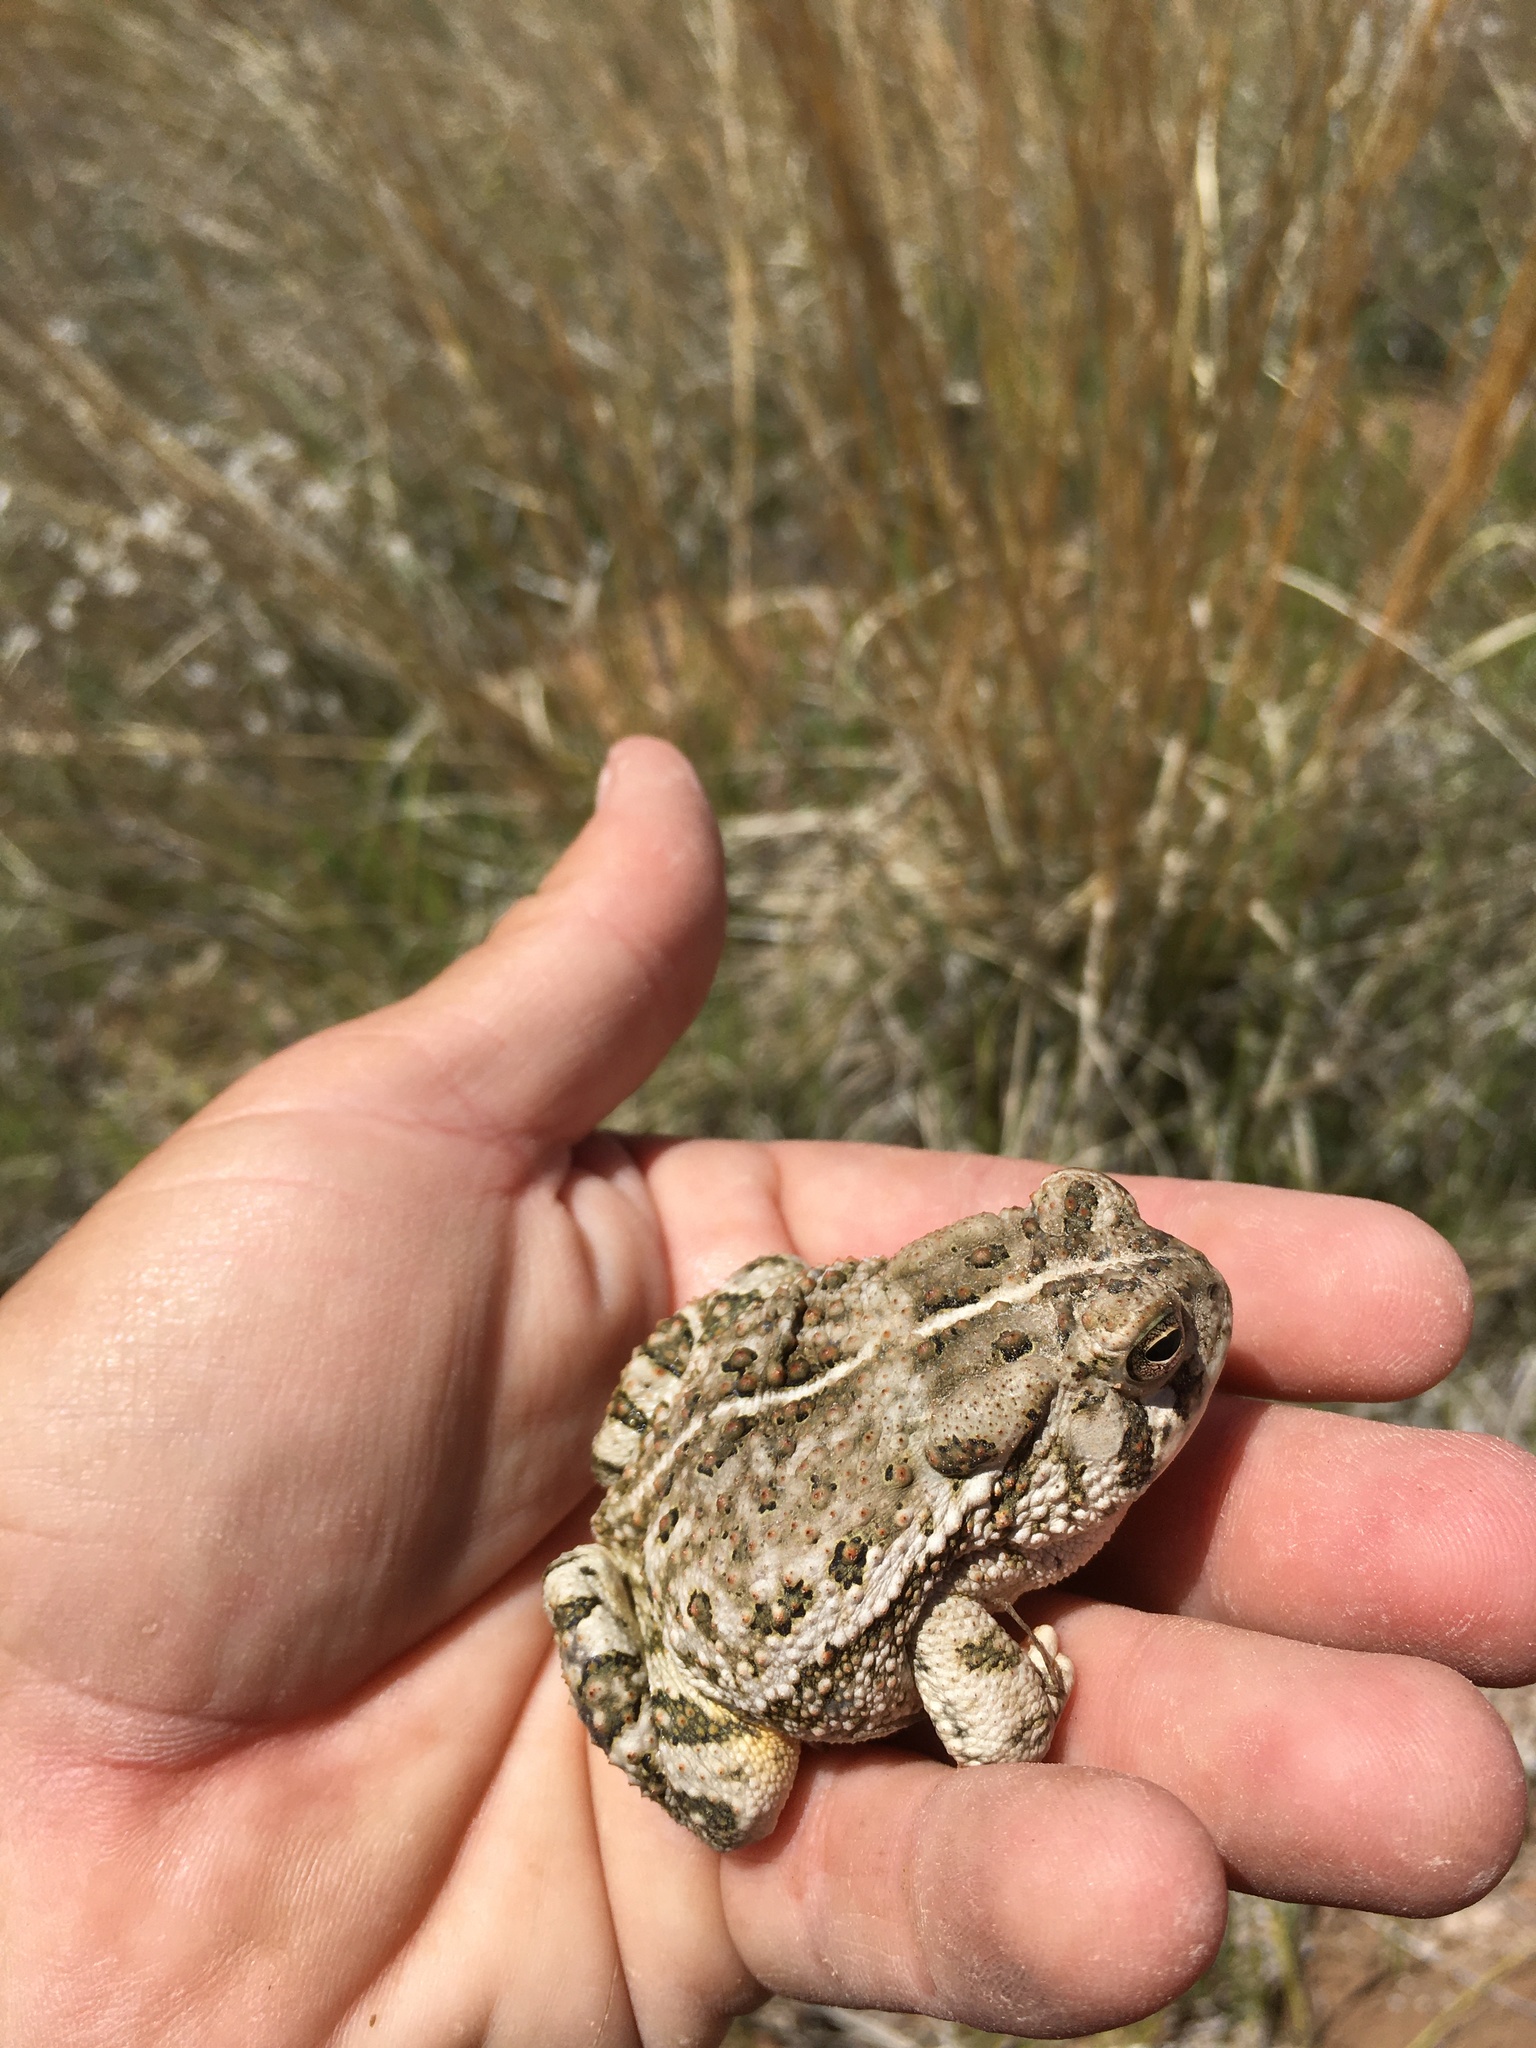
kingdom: Animalia
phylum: Chordata
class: Amphibia
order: Anura
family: Bufonidae
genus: Anaxyrus
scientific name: Anaxyrus woodhousii
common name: Woodhouse's toad
